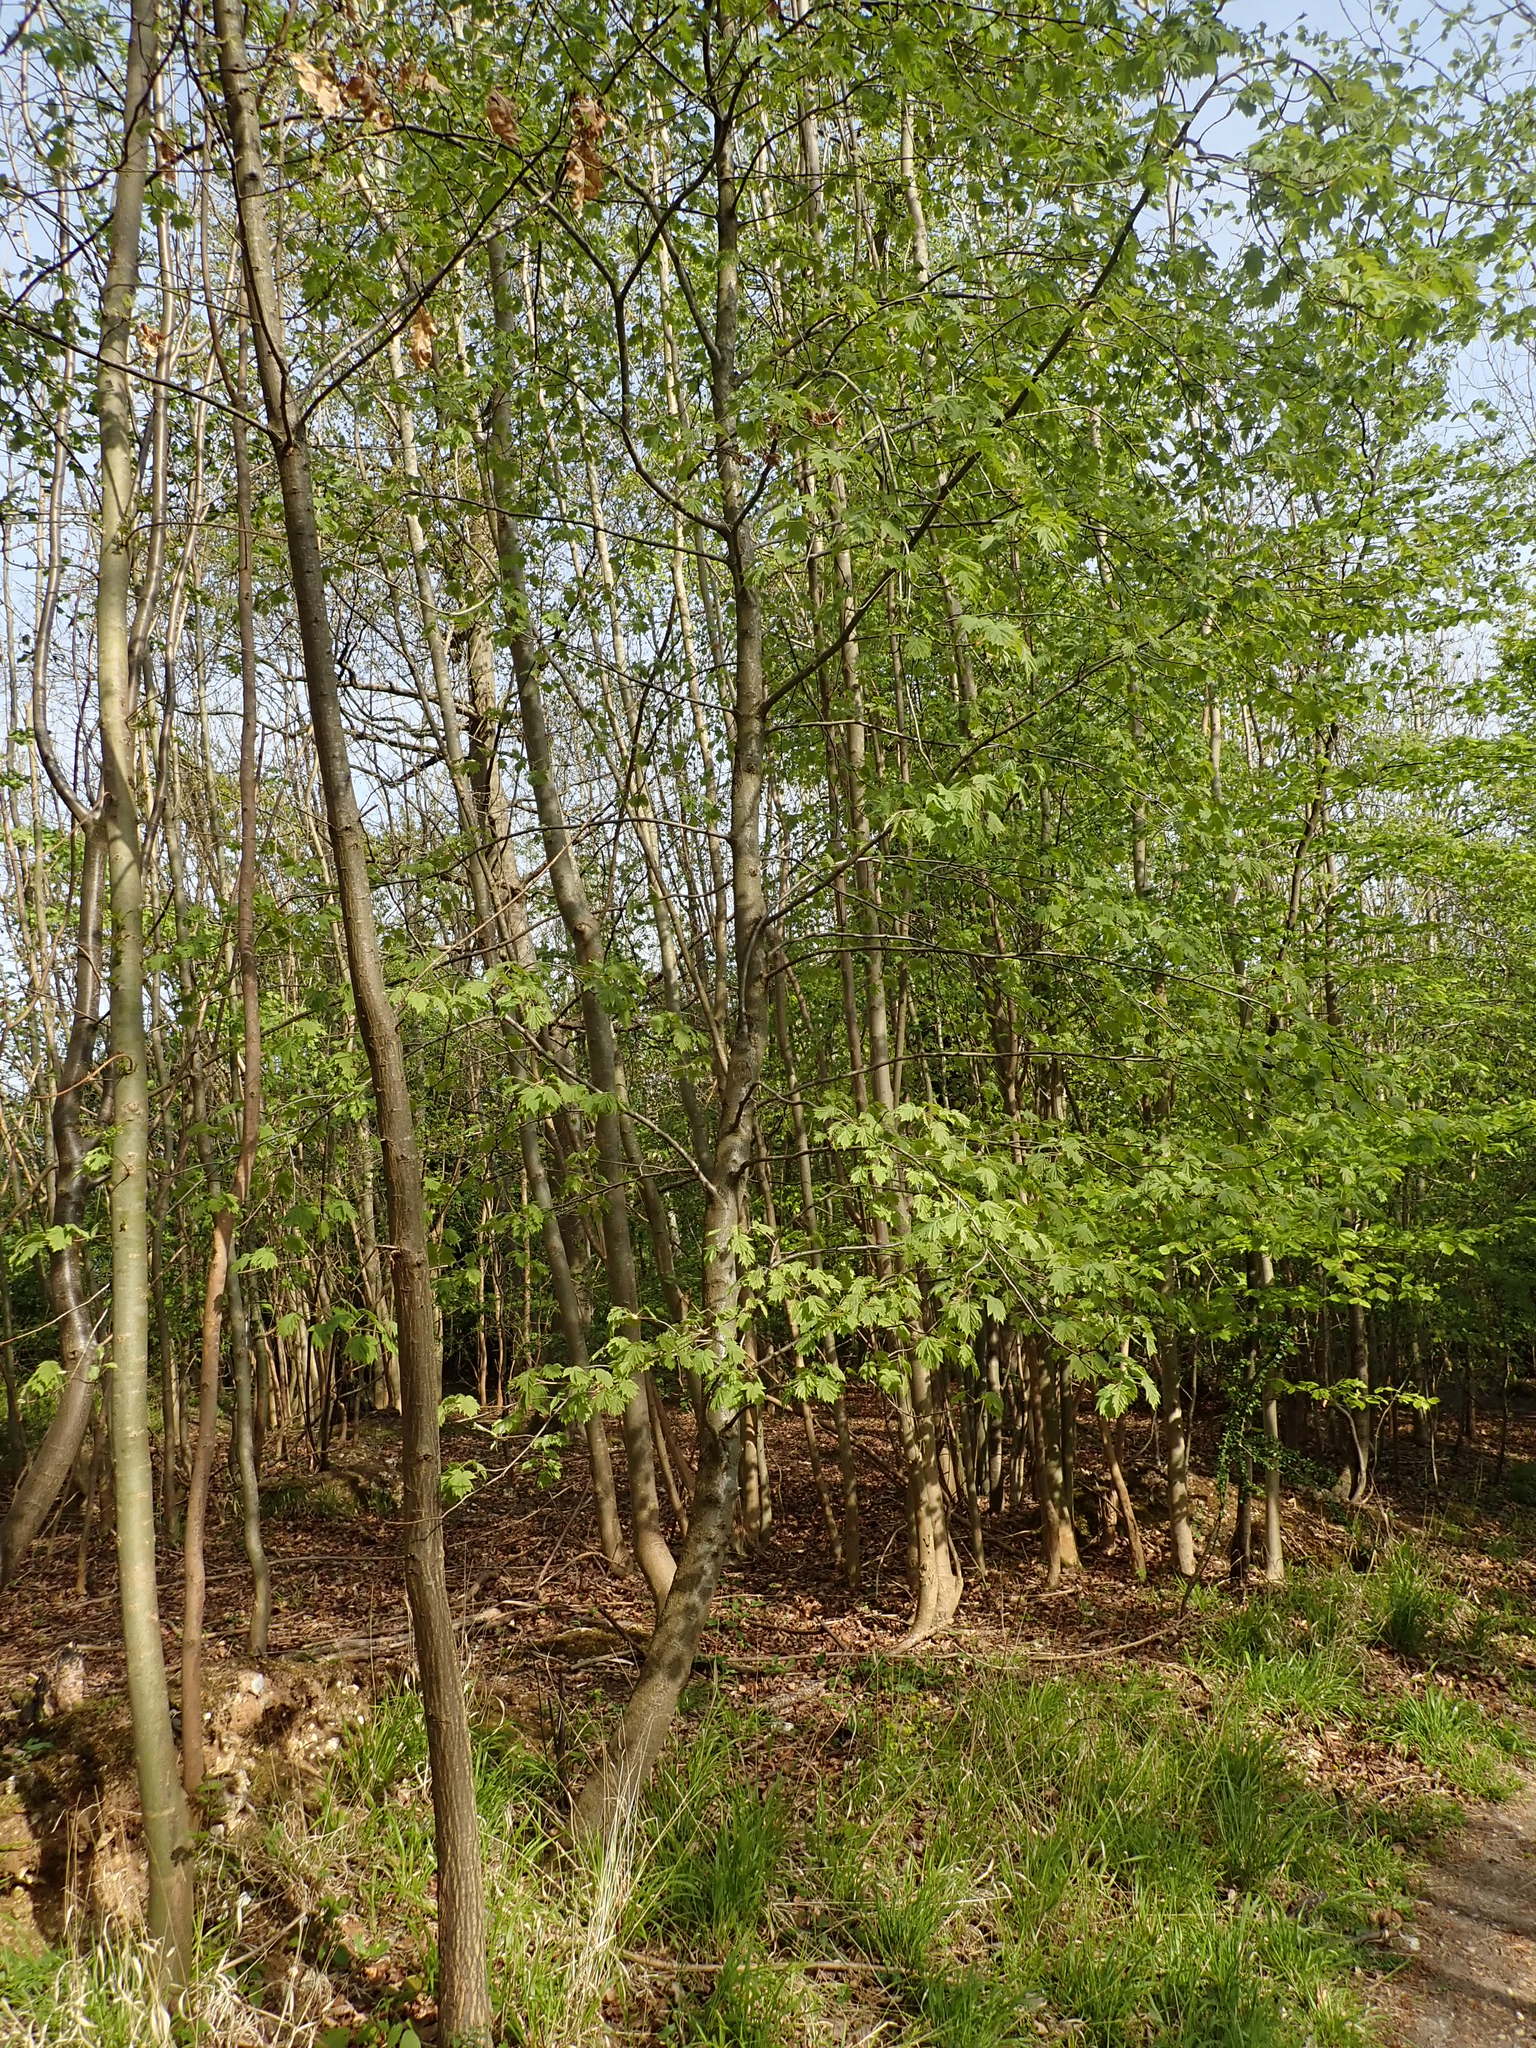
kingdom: Plantae
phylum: Tracheophyta
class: Magnoliopsida
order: Rosales
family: Rosaceae
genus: Torminalis
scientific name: Torminalis glaberrima
